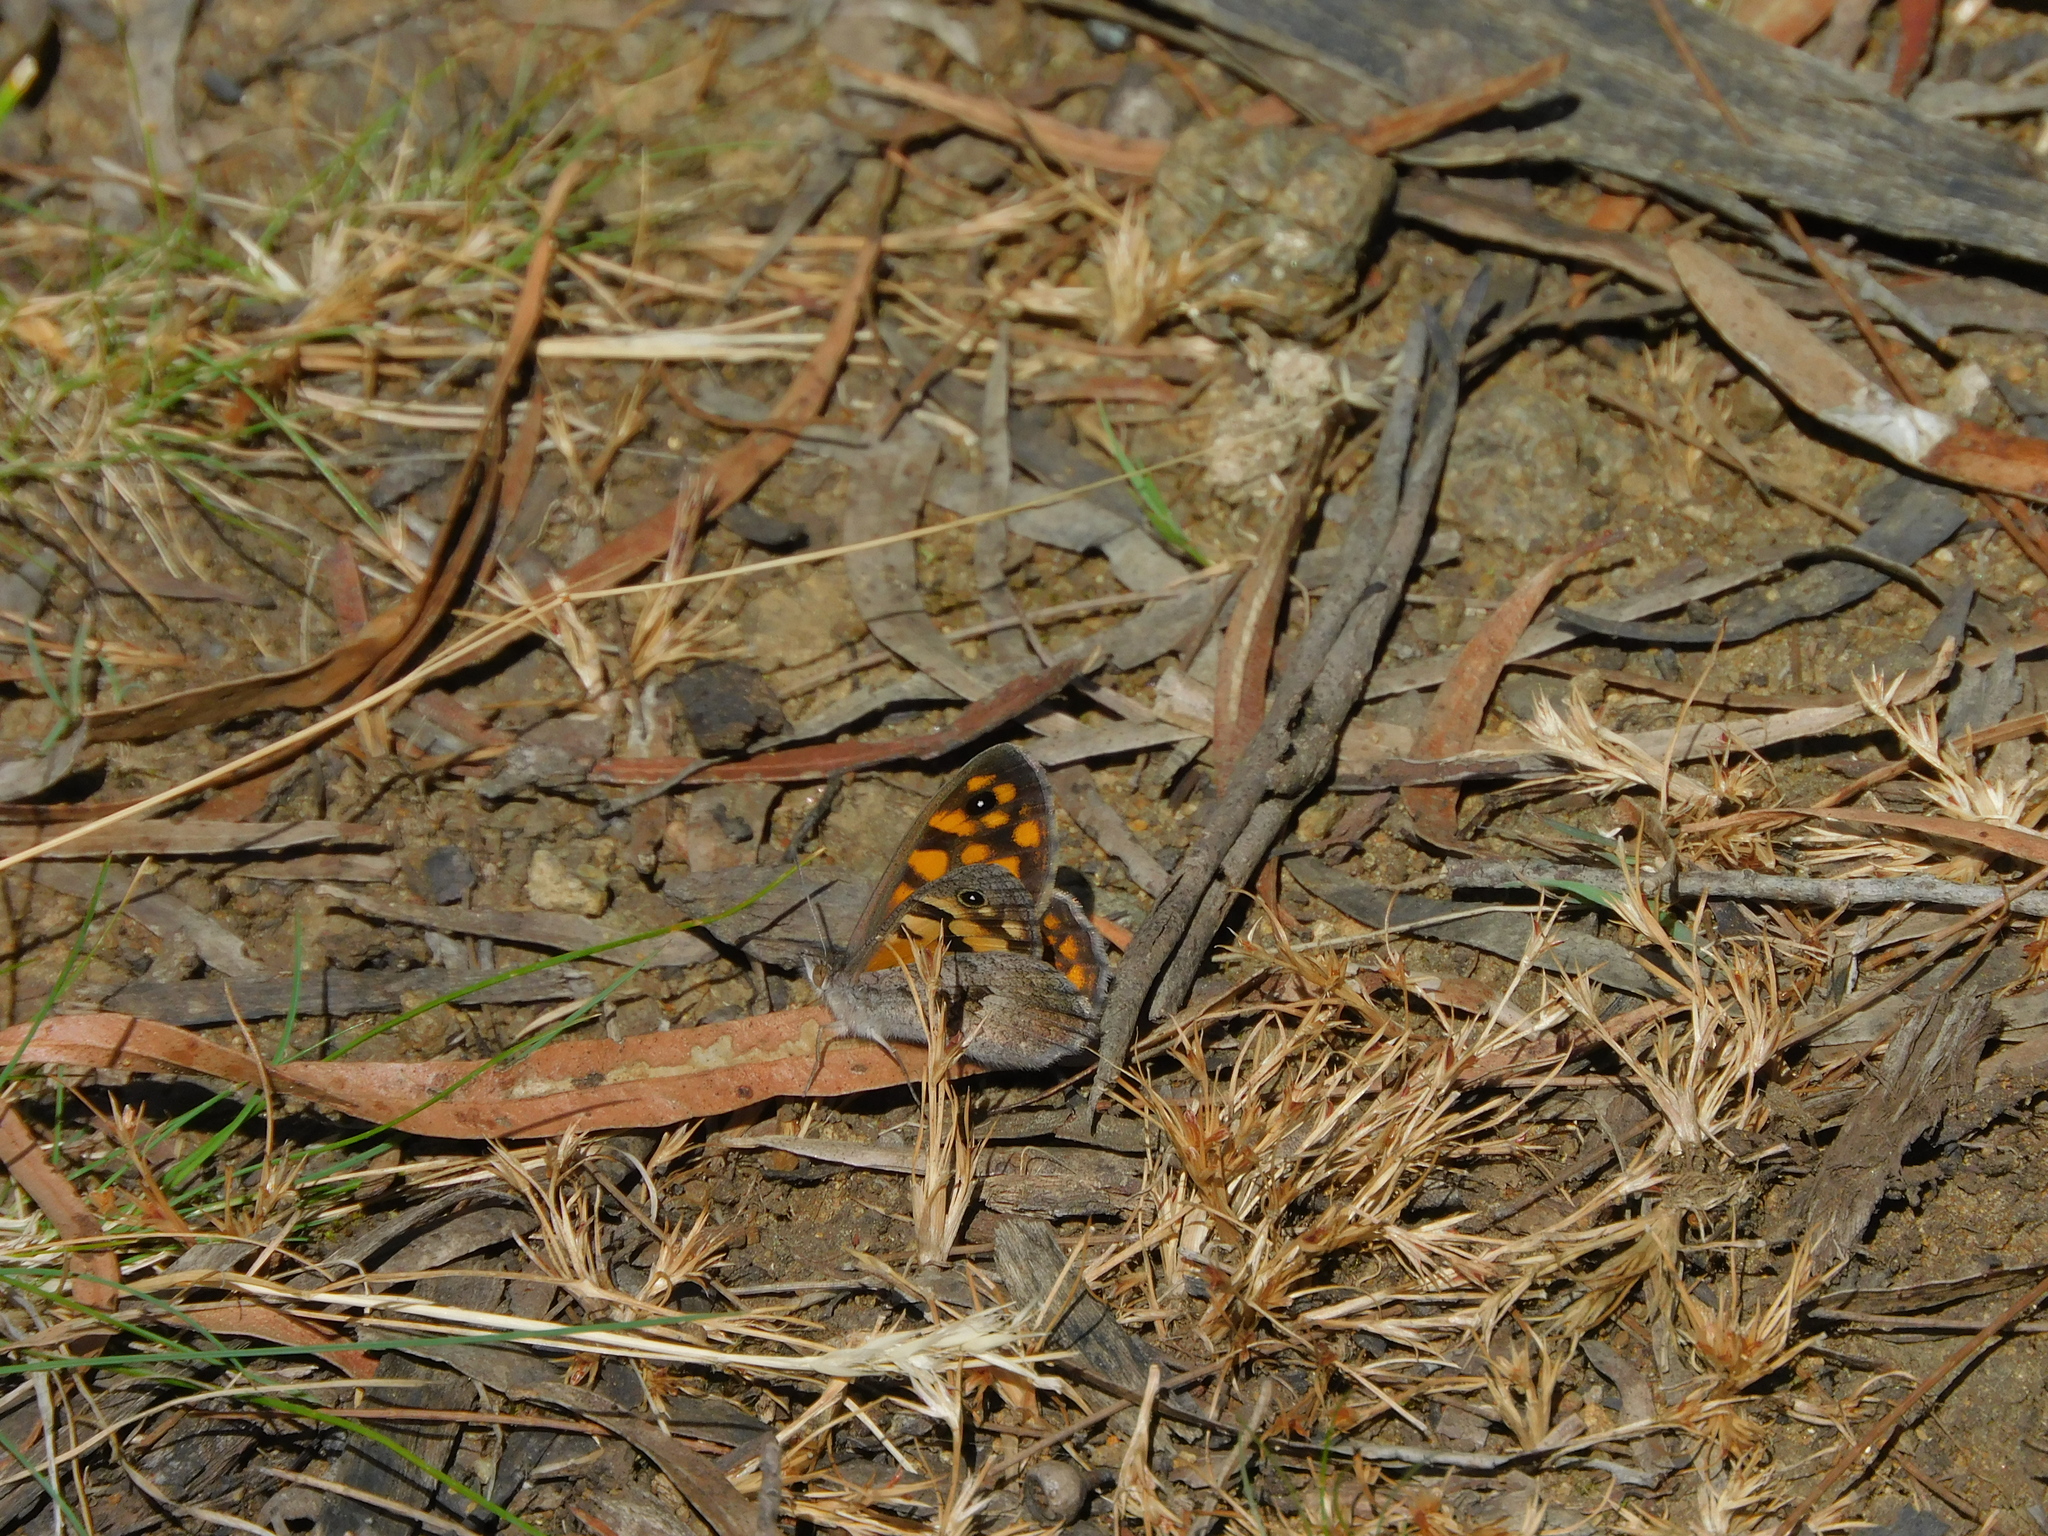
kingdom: Animalia
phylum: Arthropoda
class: Insecta
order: Lepidoptera
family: Nymphalidae
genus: Geitoneura
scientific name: Geitoneura klugii
